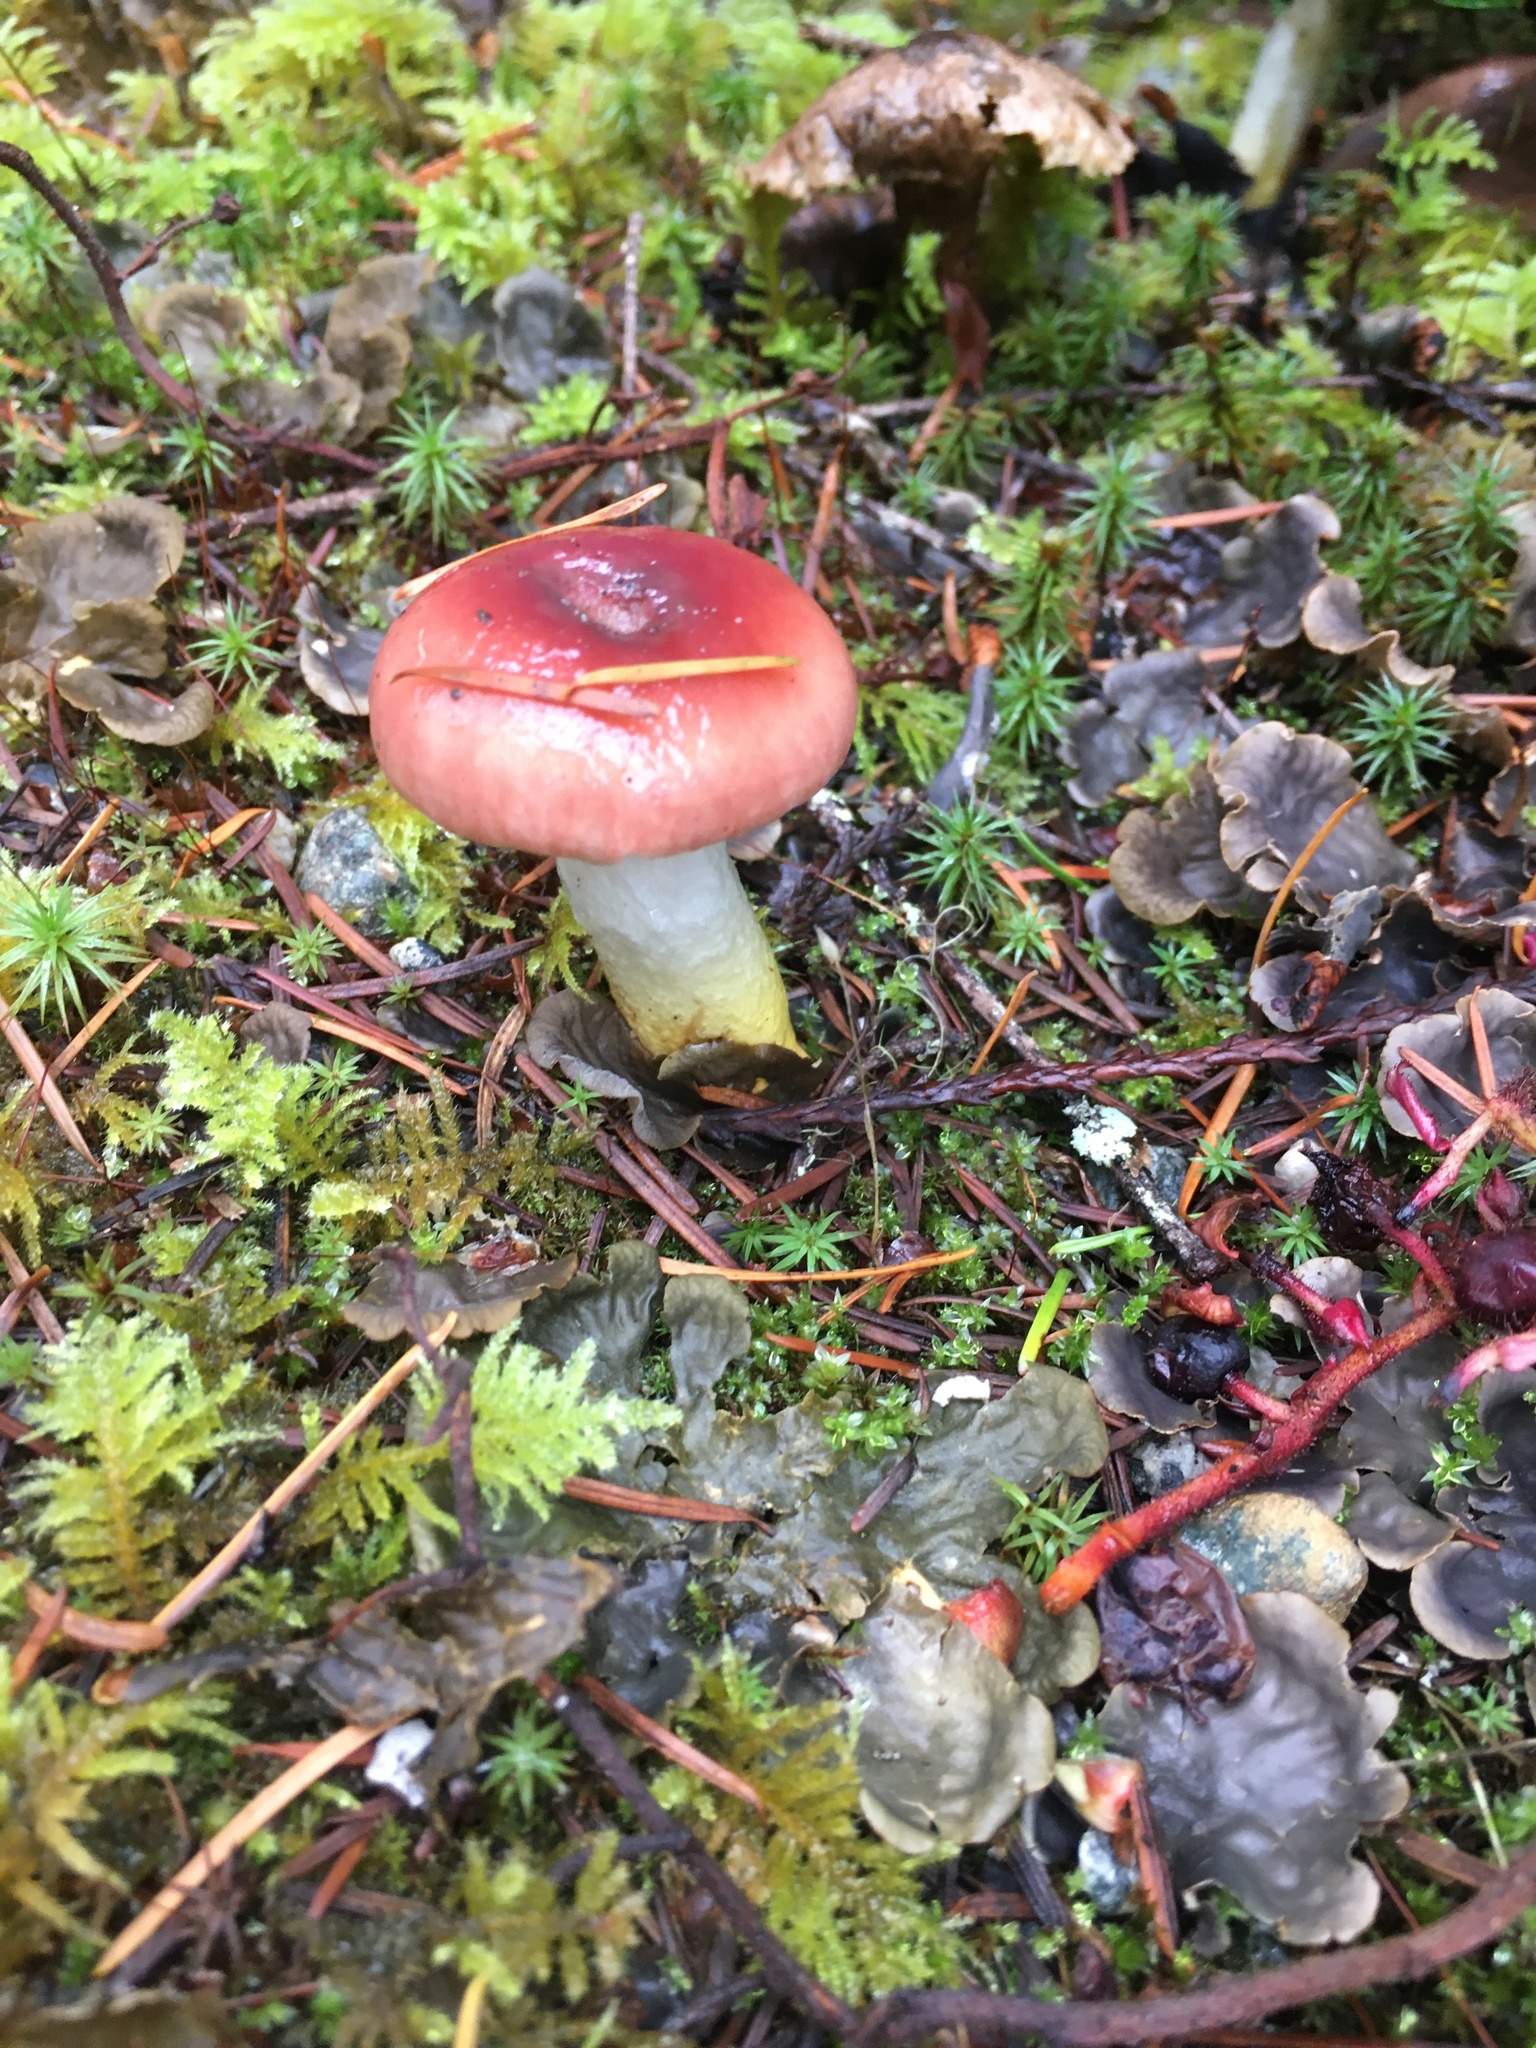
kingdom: Fungi
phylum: Basidiomycota
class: Agaricomycetes
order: Boletales
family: Gomphidiaceae
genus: Gomphidius
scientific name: Gomphidius subroseus
